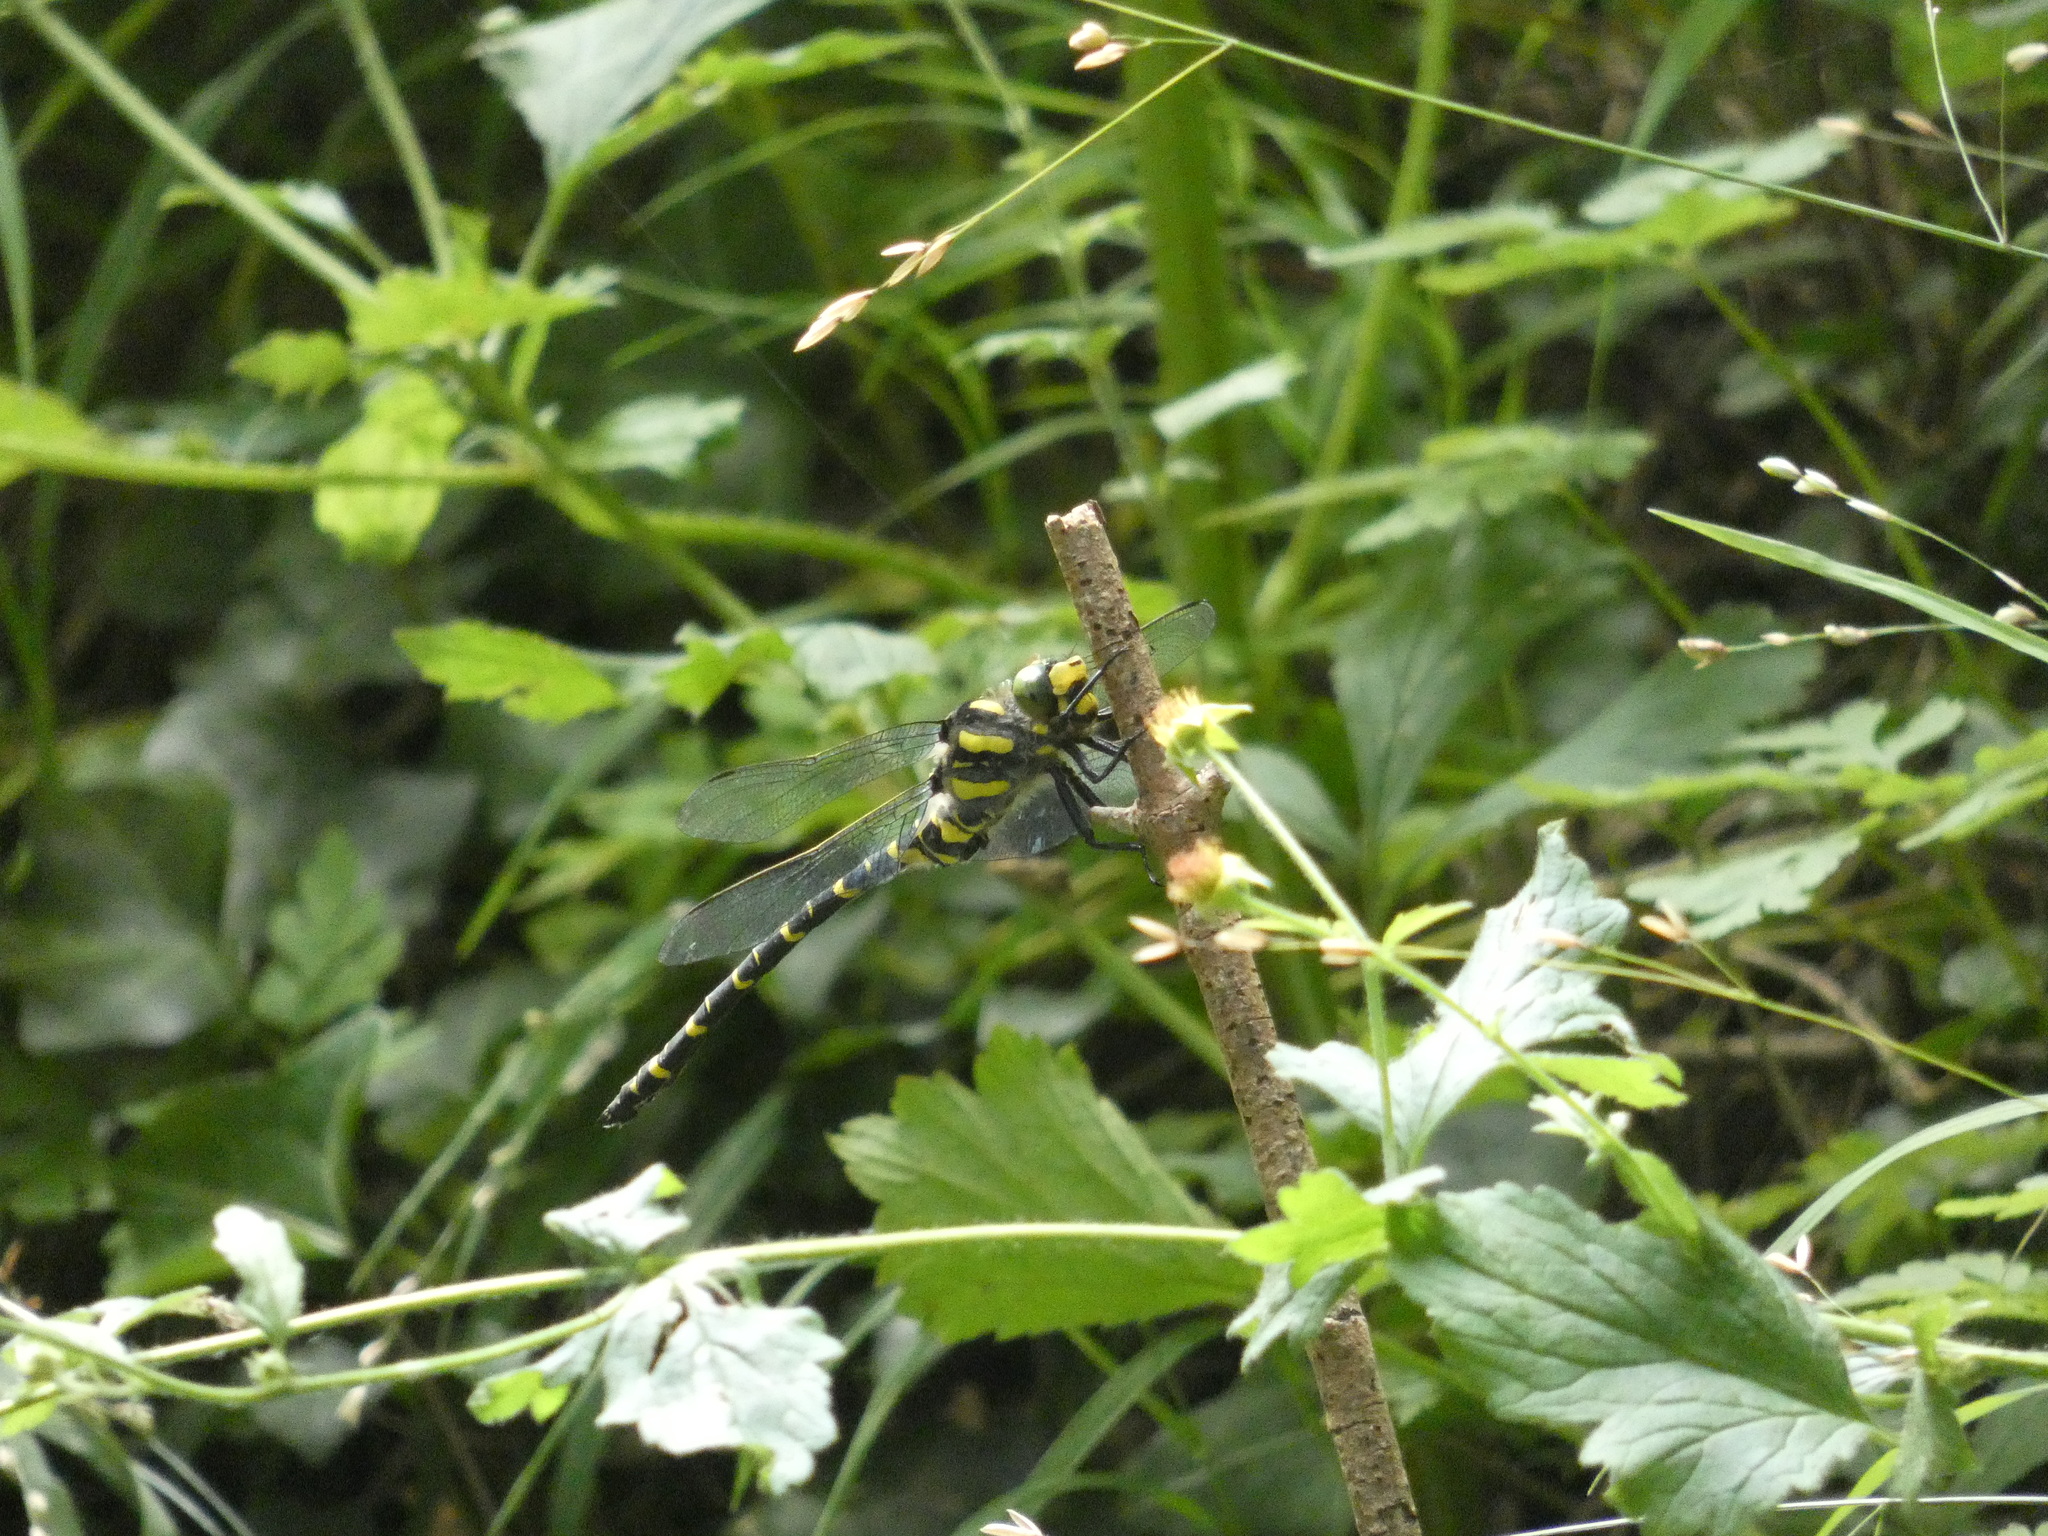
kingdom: Animalia
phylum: Arthropoda
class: Insecta
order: Odonata
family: Cordulegastridae
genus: Cordulegaster
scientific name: Cordulegaster boltonii
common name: Golden-ringed dragonfly
